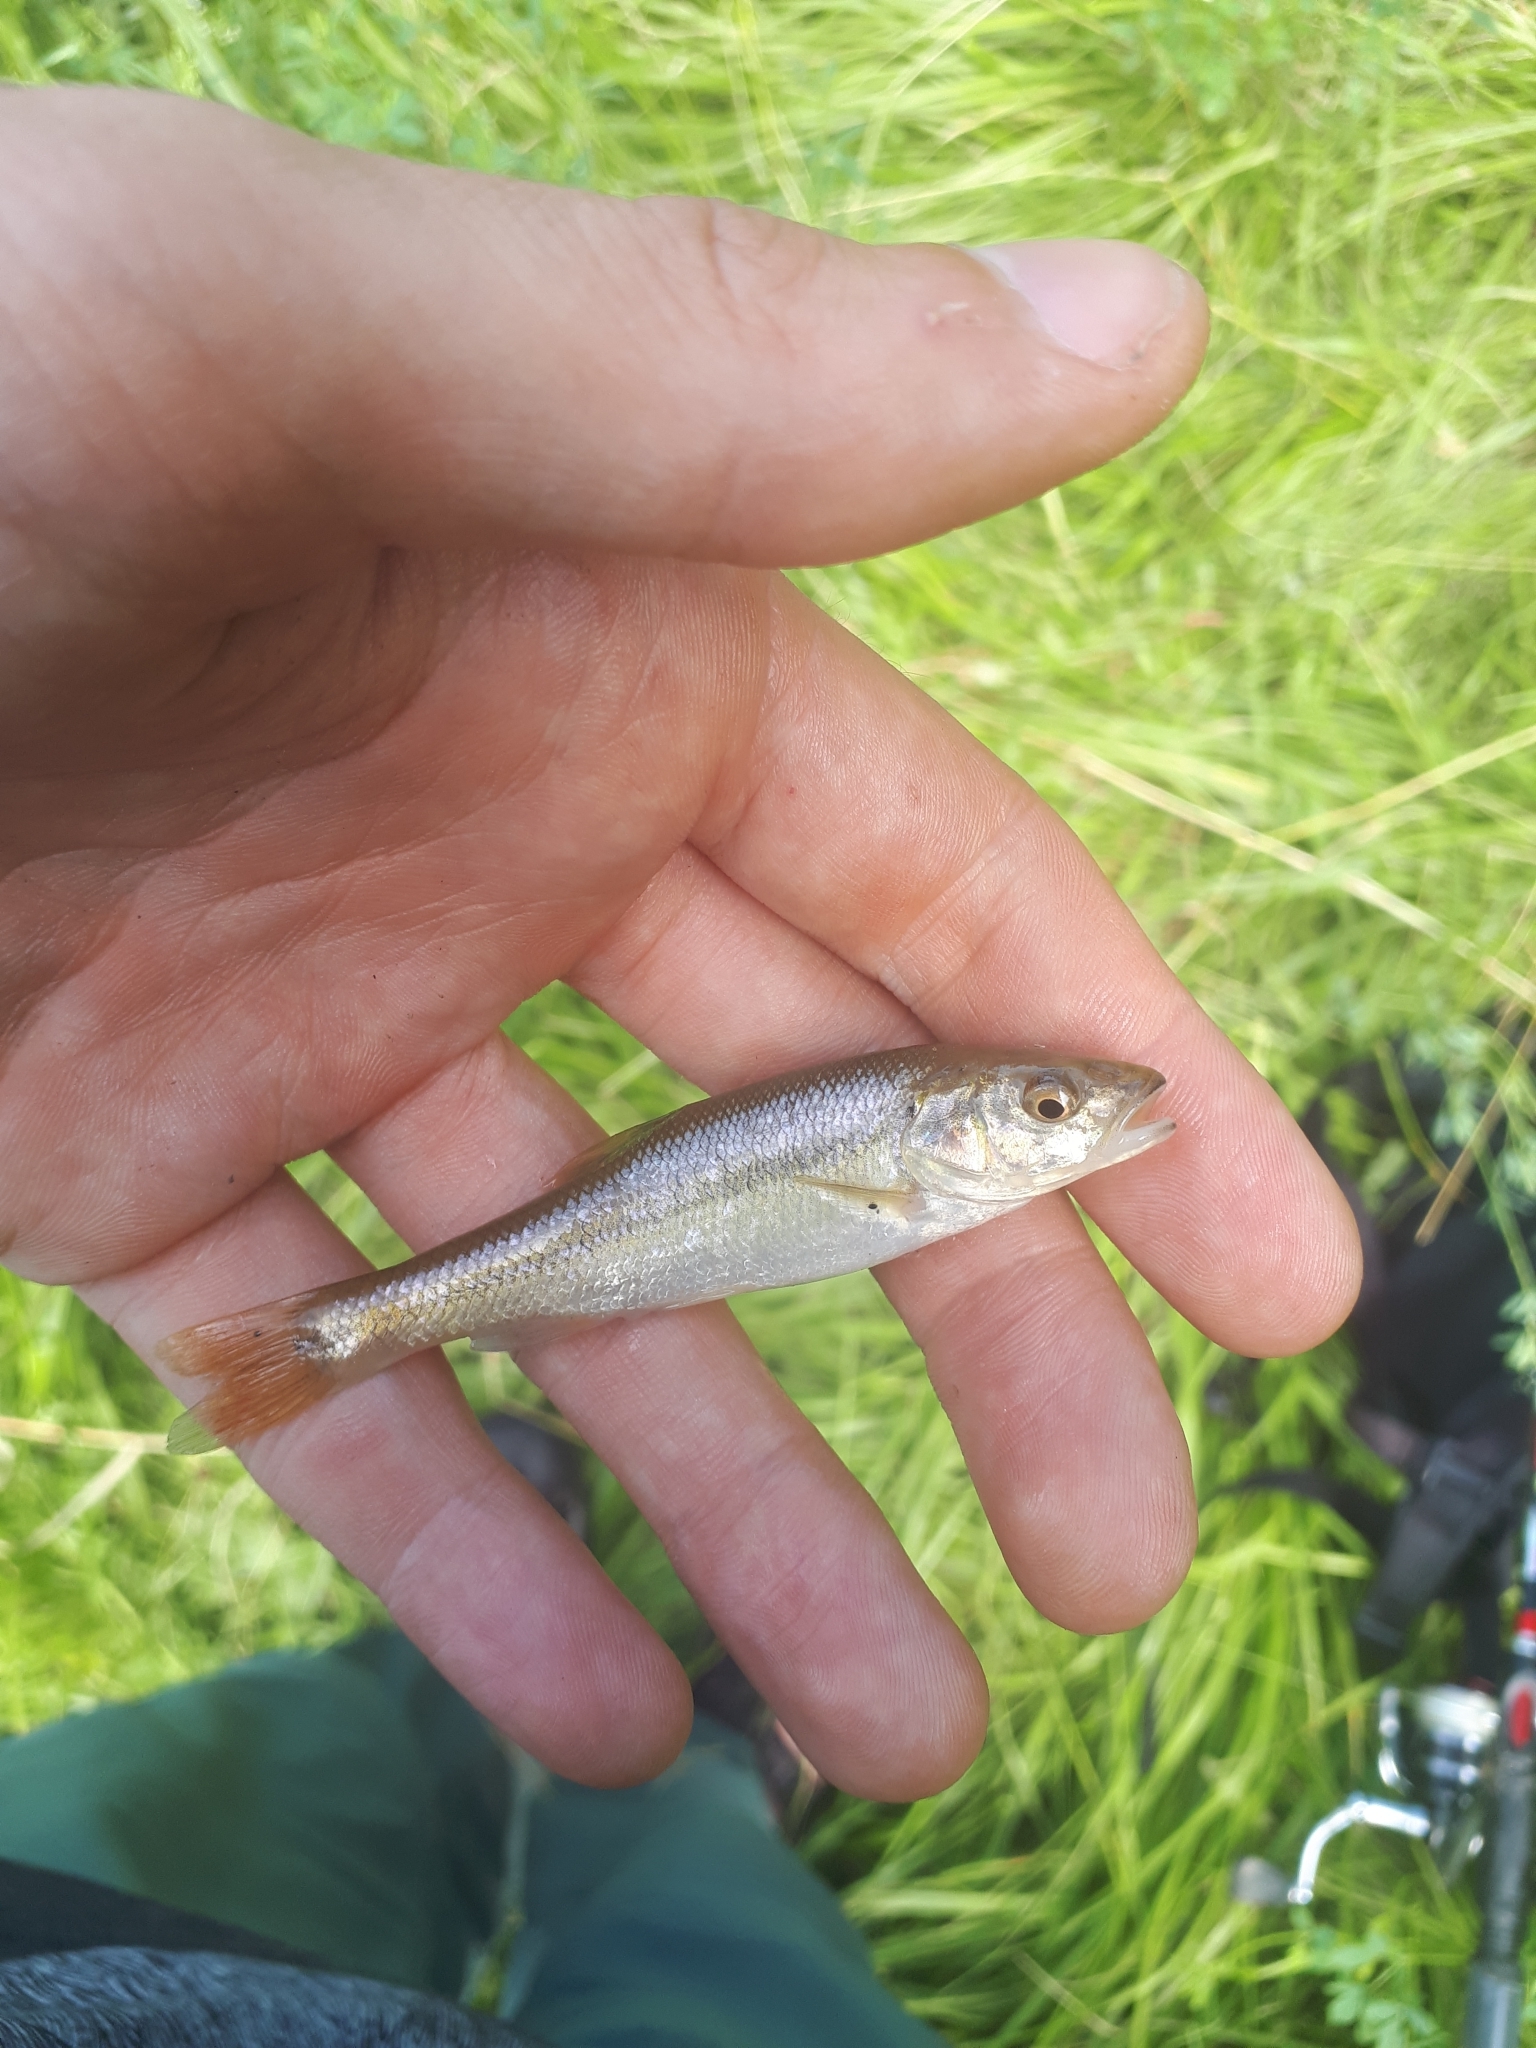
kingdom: Animalia
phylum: Chordata
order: Cypriniformes
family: Cyprinidae
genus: Semotilus
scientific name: Semotilus atromaculatus
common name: Creek chub
